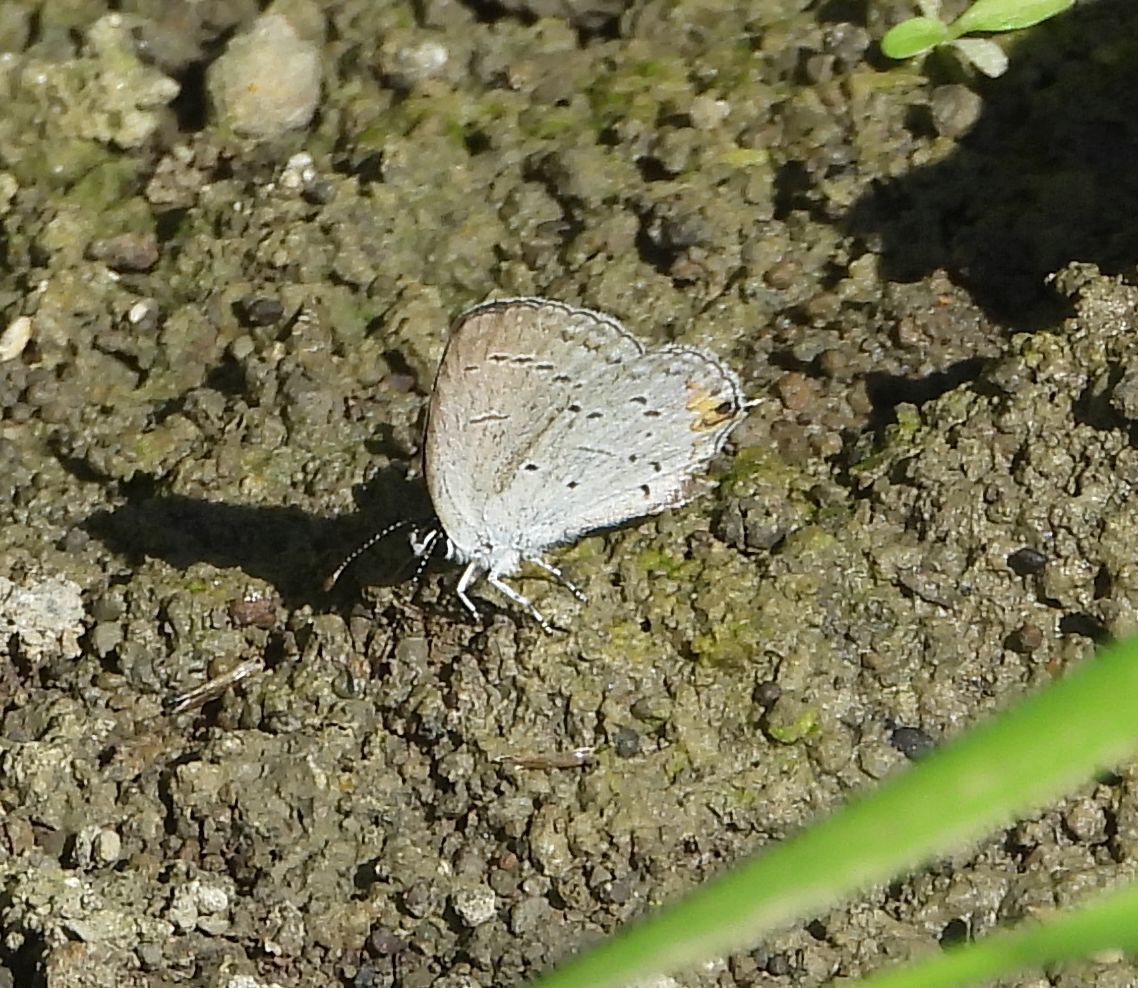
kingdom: Animalia
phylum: Arthropoda
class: Insecta
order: Lepidoptera
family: Lycaenidae
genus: Elkalyce
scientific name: Elkalyce comyntas
